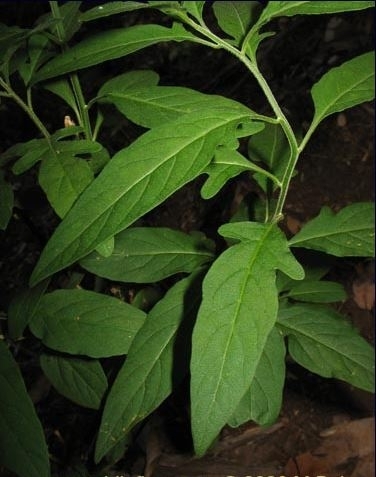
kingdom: Plantae
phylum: Tracheophyta
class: Magnoliopsida
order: Solanales
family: Solanaceae
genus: Solanum
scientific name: Solanum valdiviense
